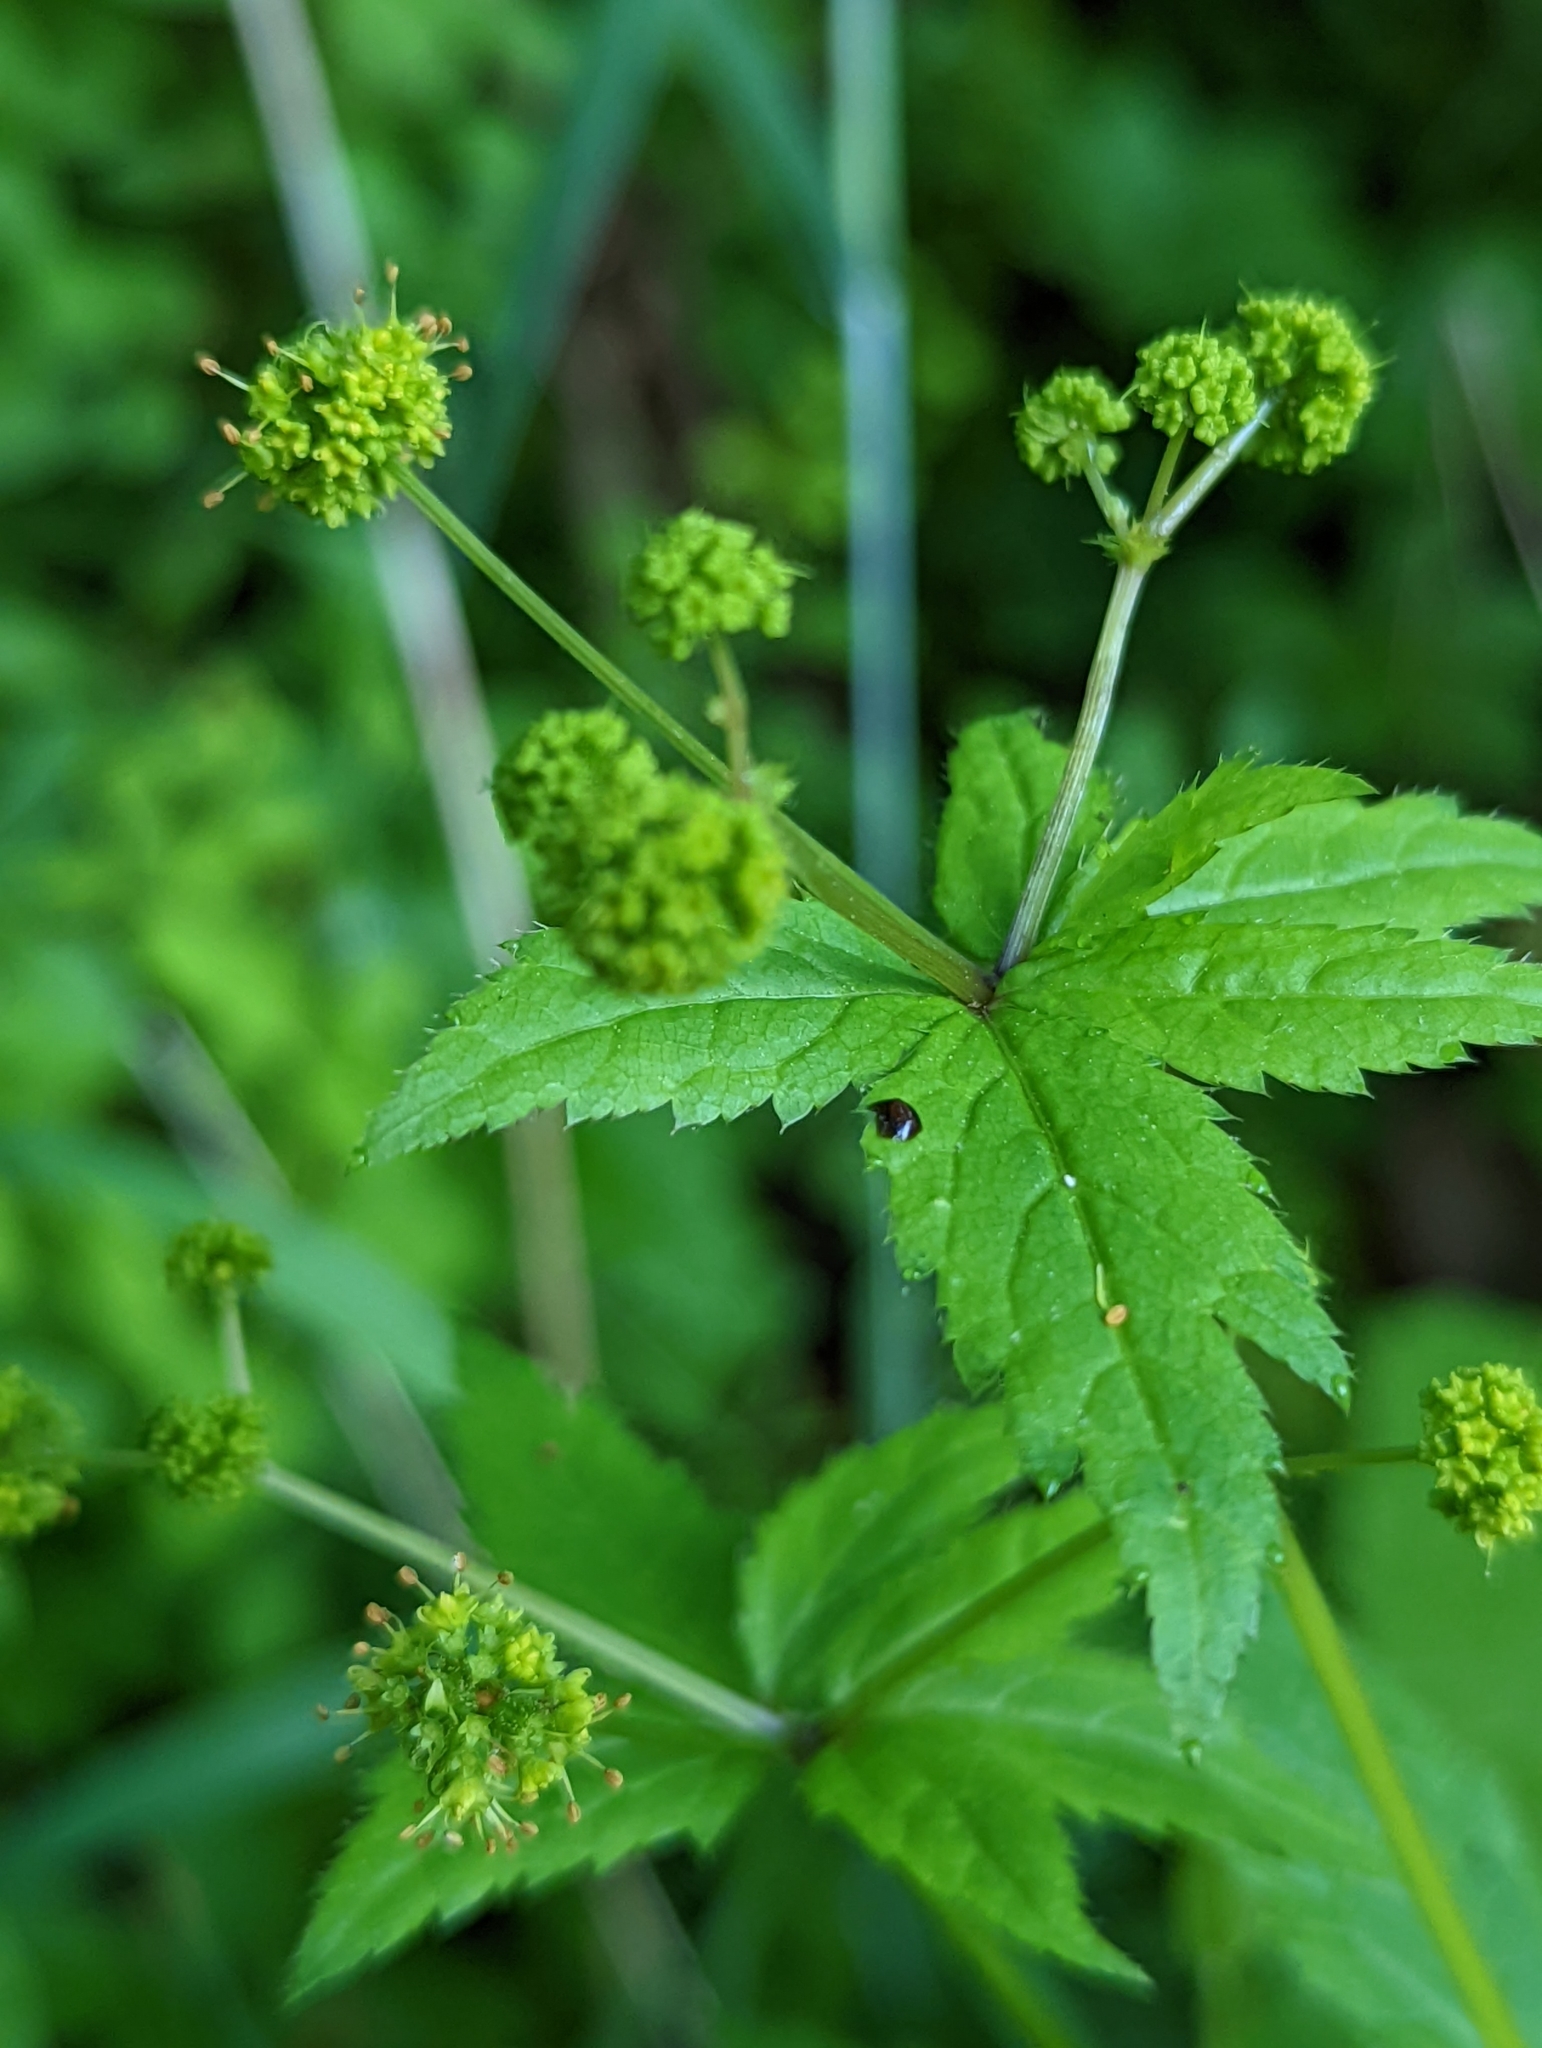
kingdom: Plantae
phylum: Tracheophyta
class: Magnoliopsida
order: Apiales
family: Apiaceae
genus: Sanicula
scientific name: Sanicula odorata
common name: Cluster sanicle
